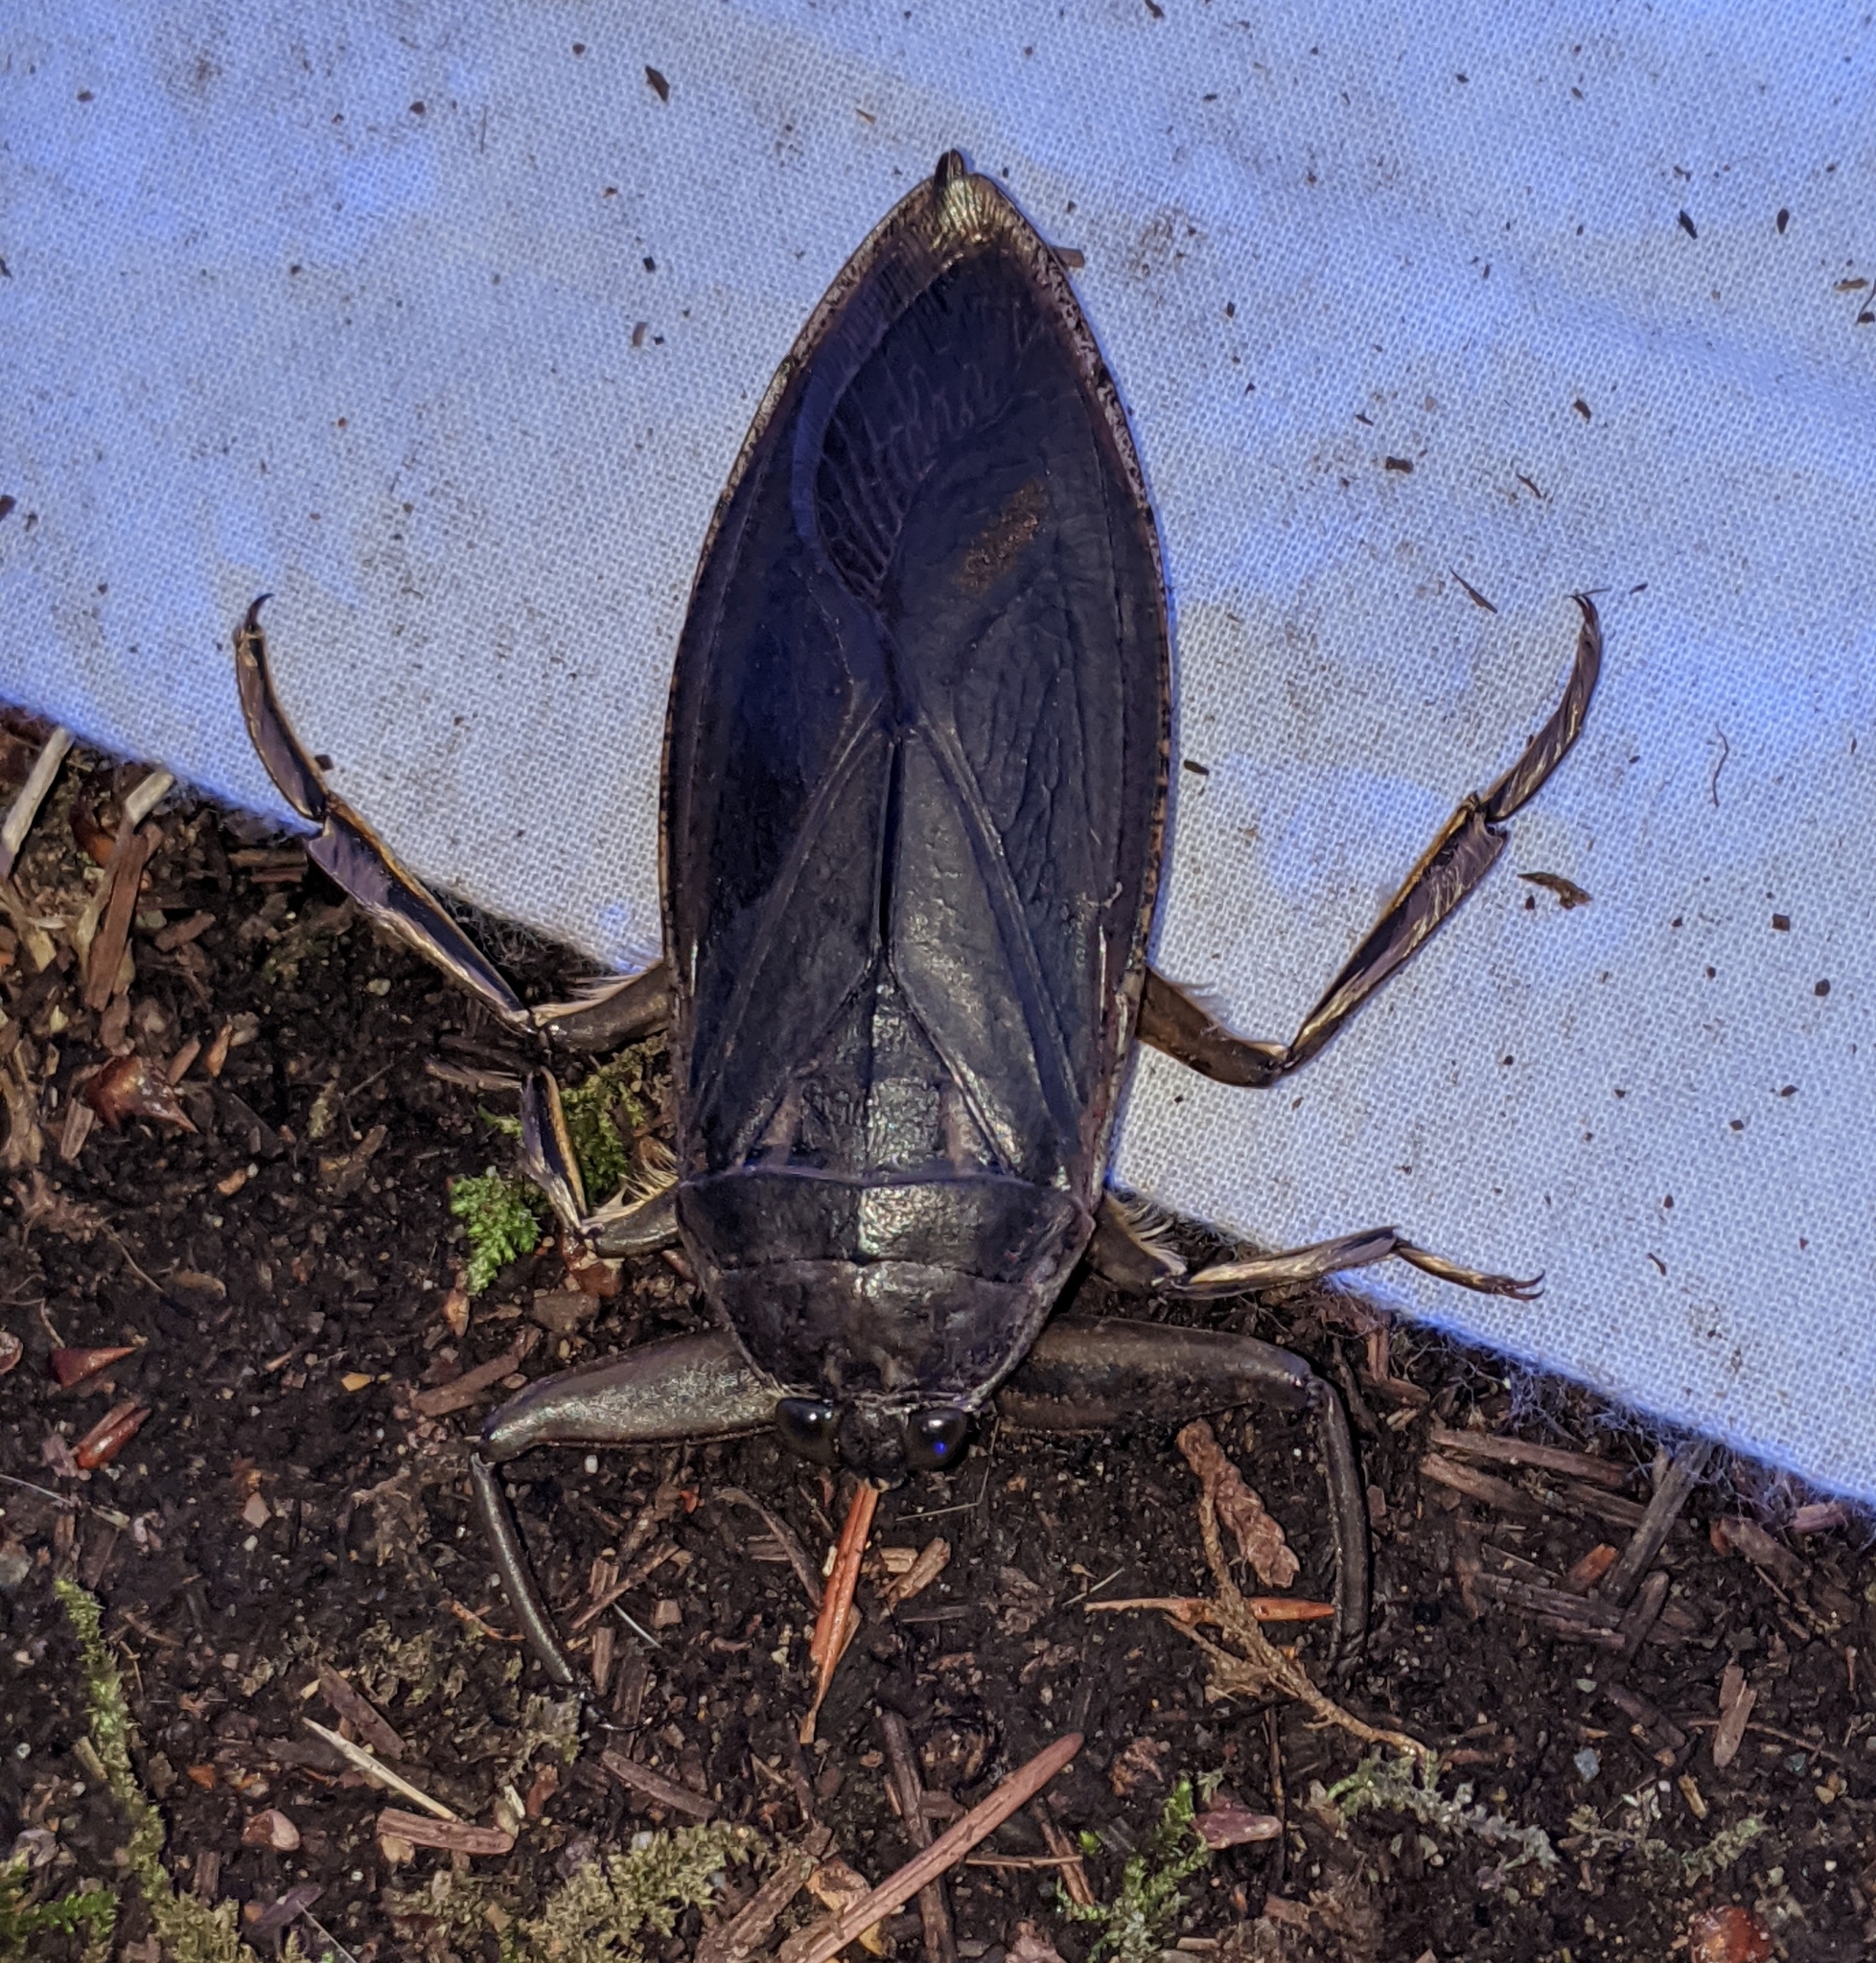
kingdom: Animalia
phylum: Arthropoda
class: Insecta
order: Hemiptera
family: Belostomatidae
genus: Lethocerus
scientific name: Lethocerus americanus
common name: Giant water bug
